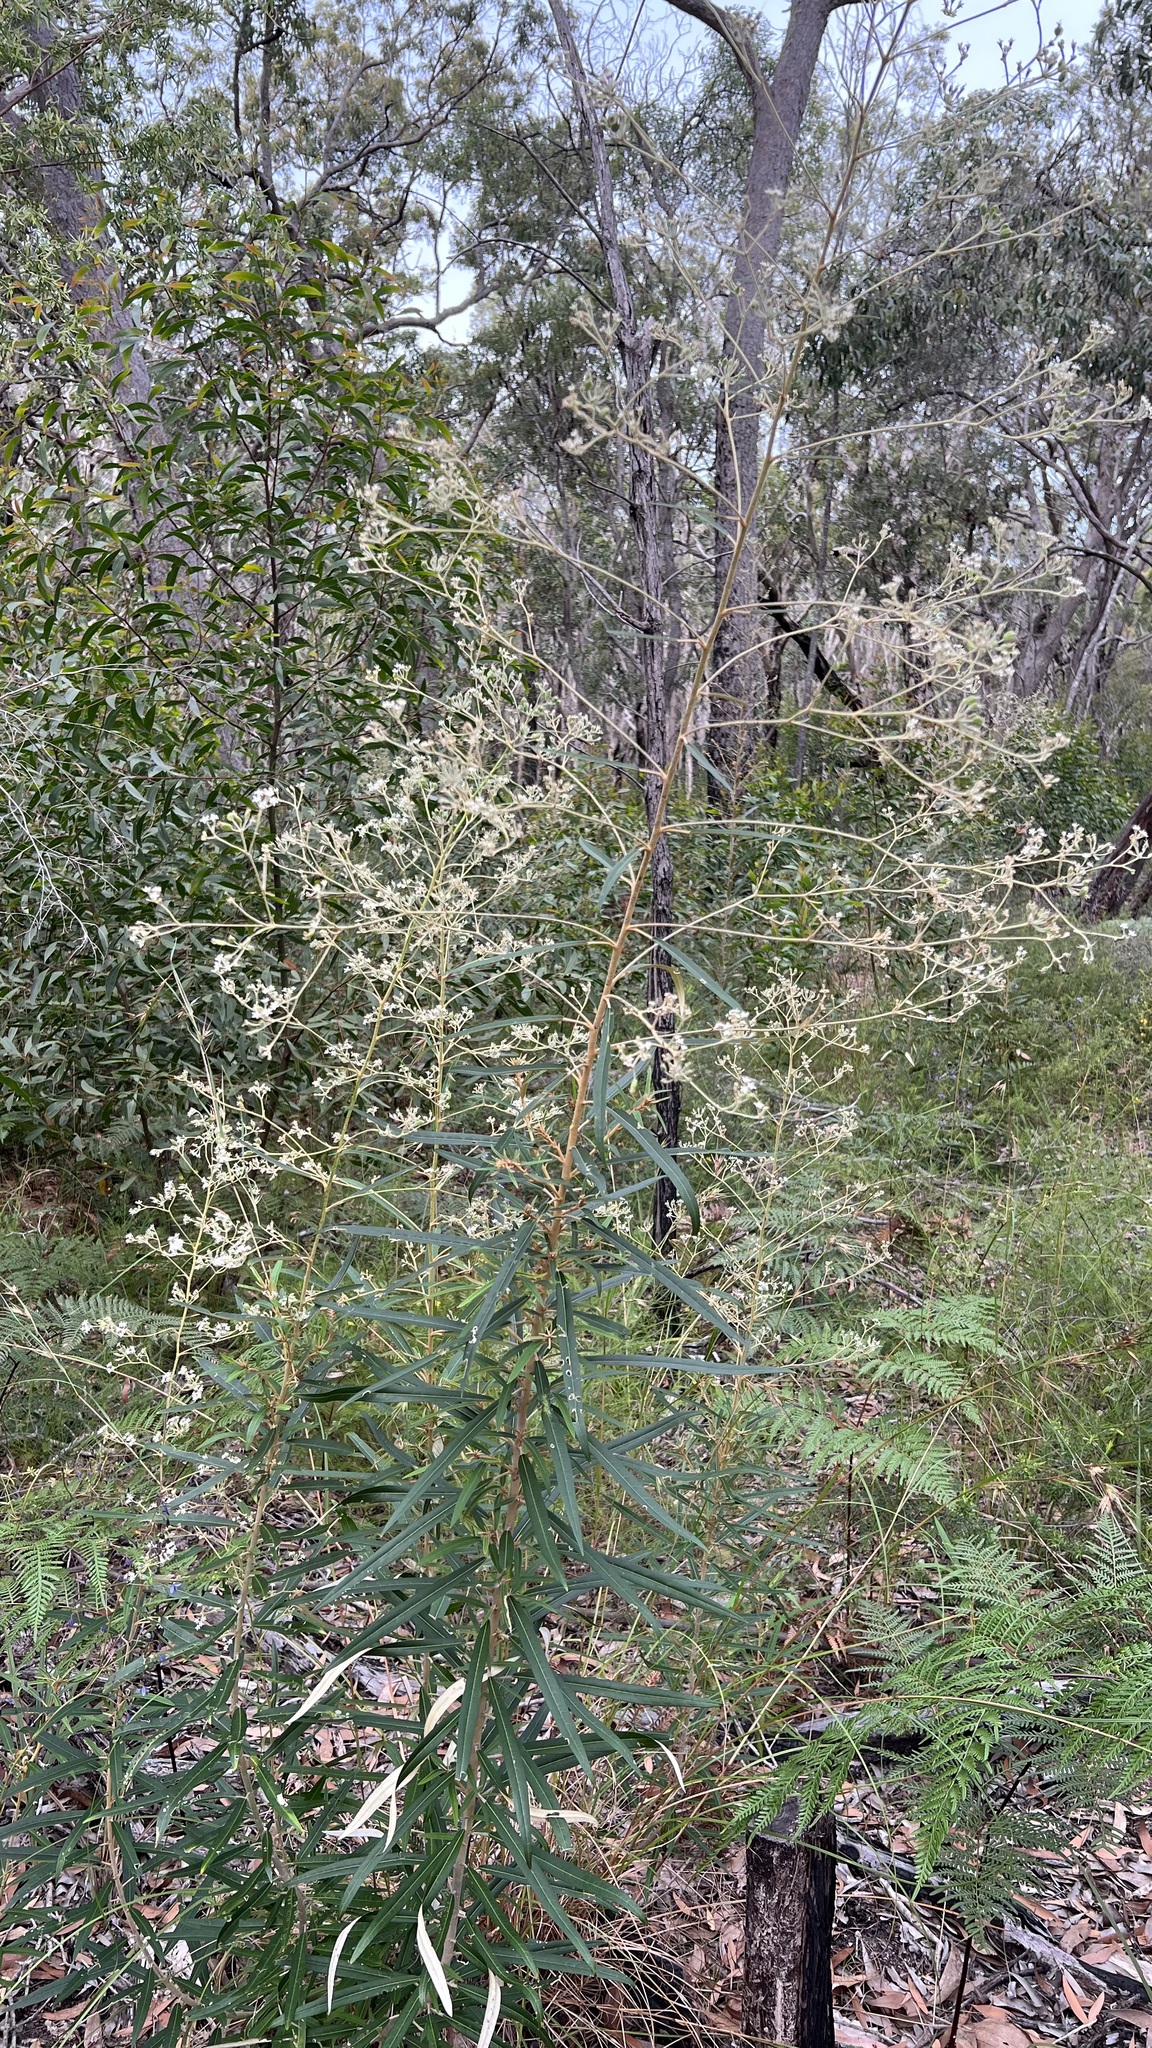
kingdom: Plantae
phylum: Tracheophyta
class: Magnoliopsida
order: Apiales
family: Araliaceae
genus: Astrotricha
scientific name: Astrotricha longifolia
